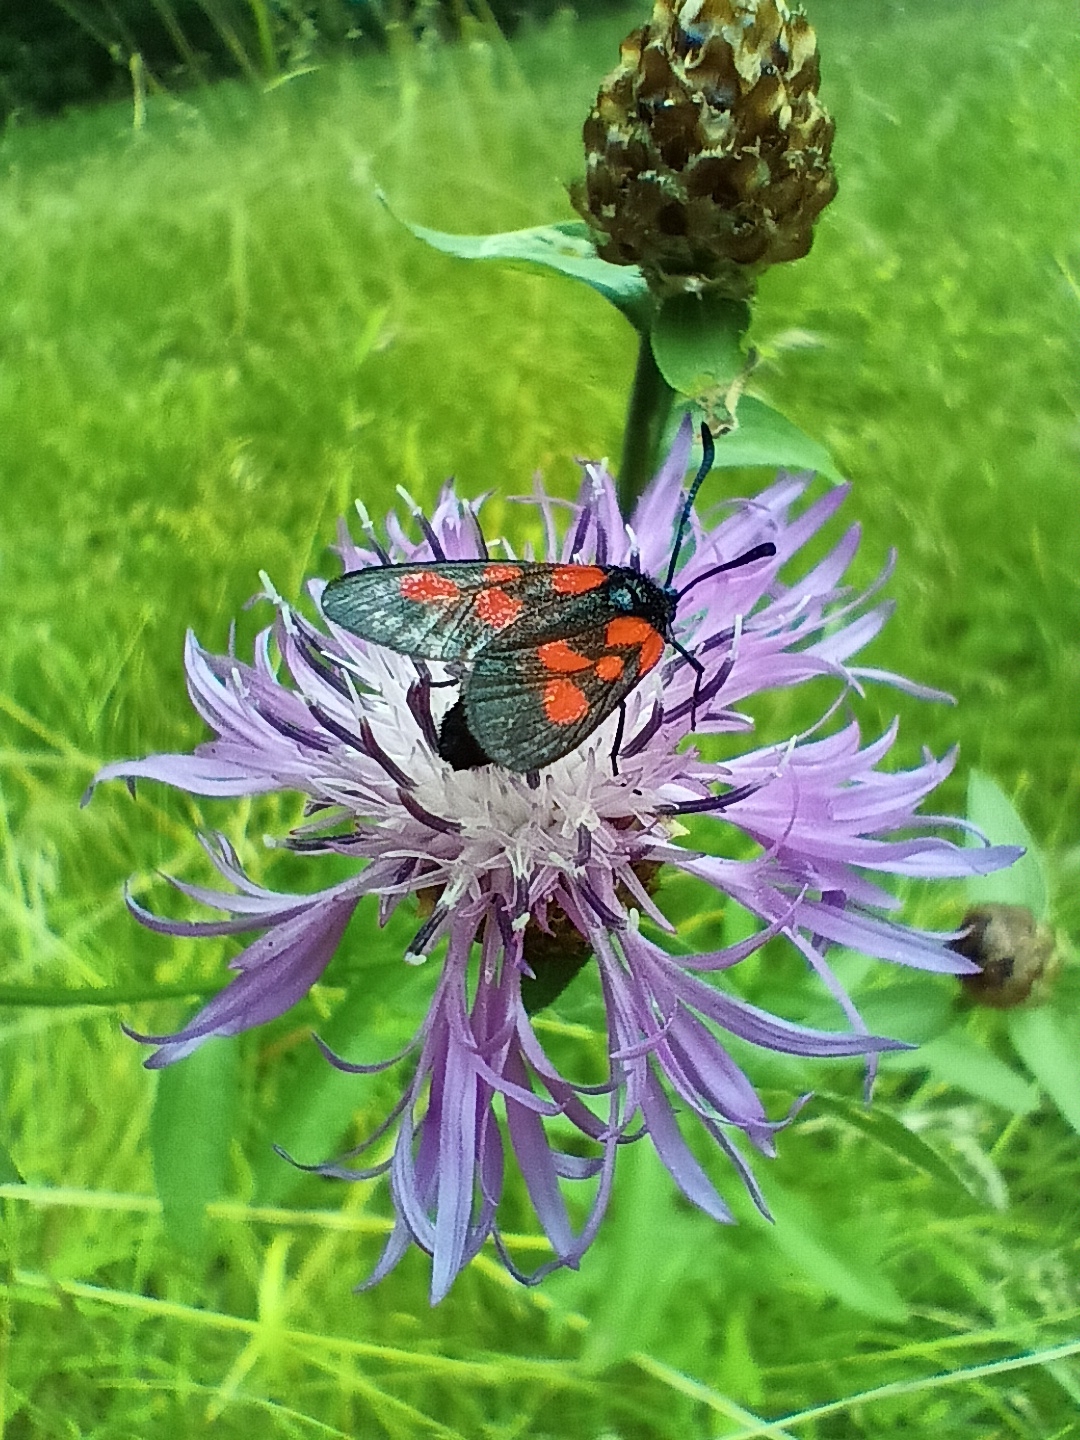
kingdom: Animalia
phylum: Arthropoda
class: Insecta
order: Lepidoptera
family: Zygaenidae
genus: Zygaena
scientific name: Zygaena cynarae
